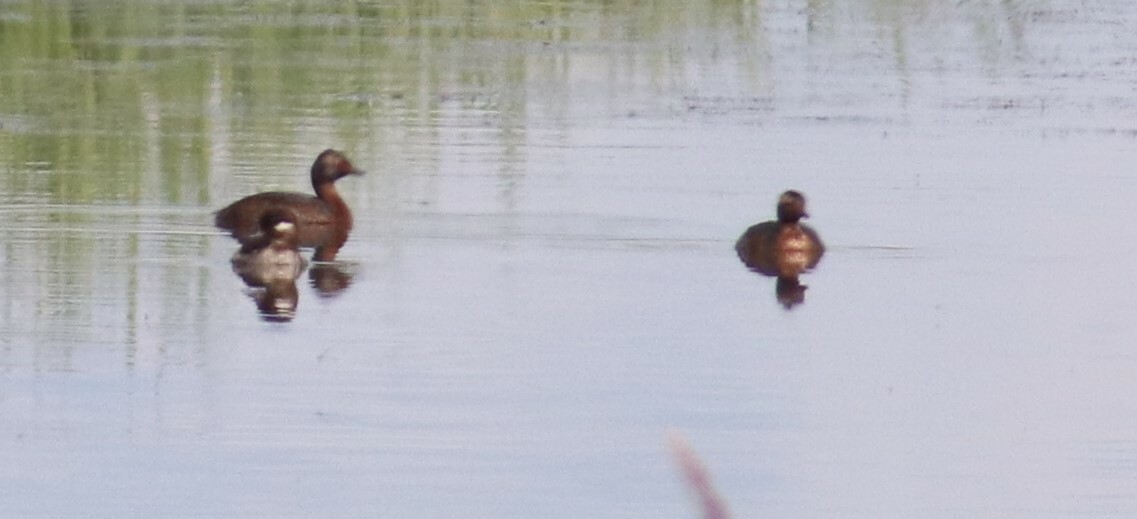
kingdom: Animalia
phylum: Chordata
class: Aves
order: Podicipediformes
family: Podicipedidae
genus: Podiceps
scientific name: Podiceps auritus
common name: Horned grebe
